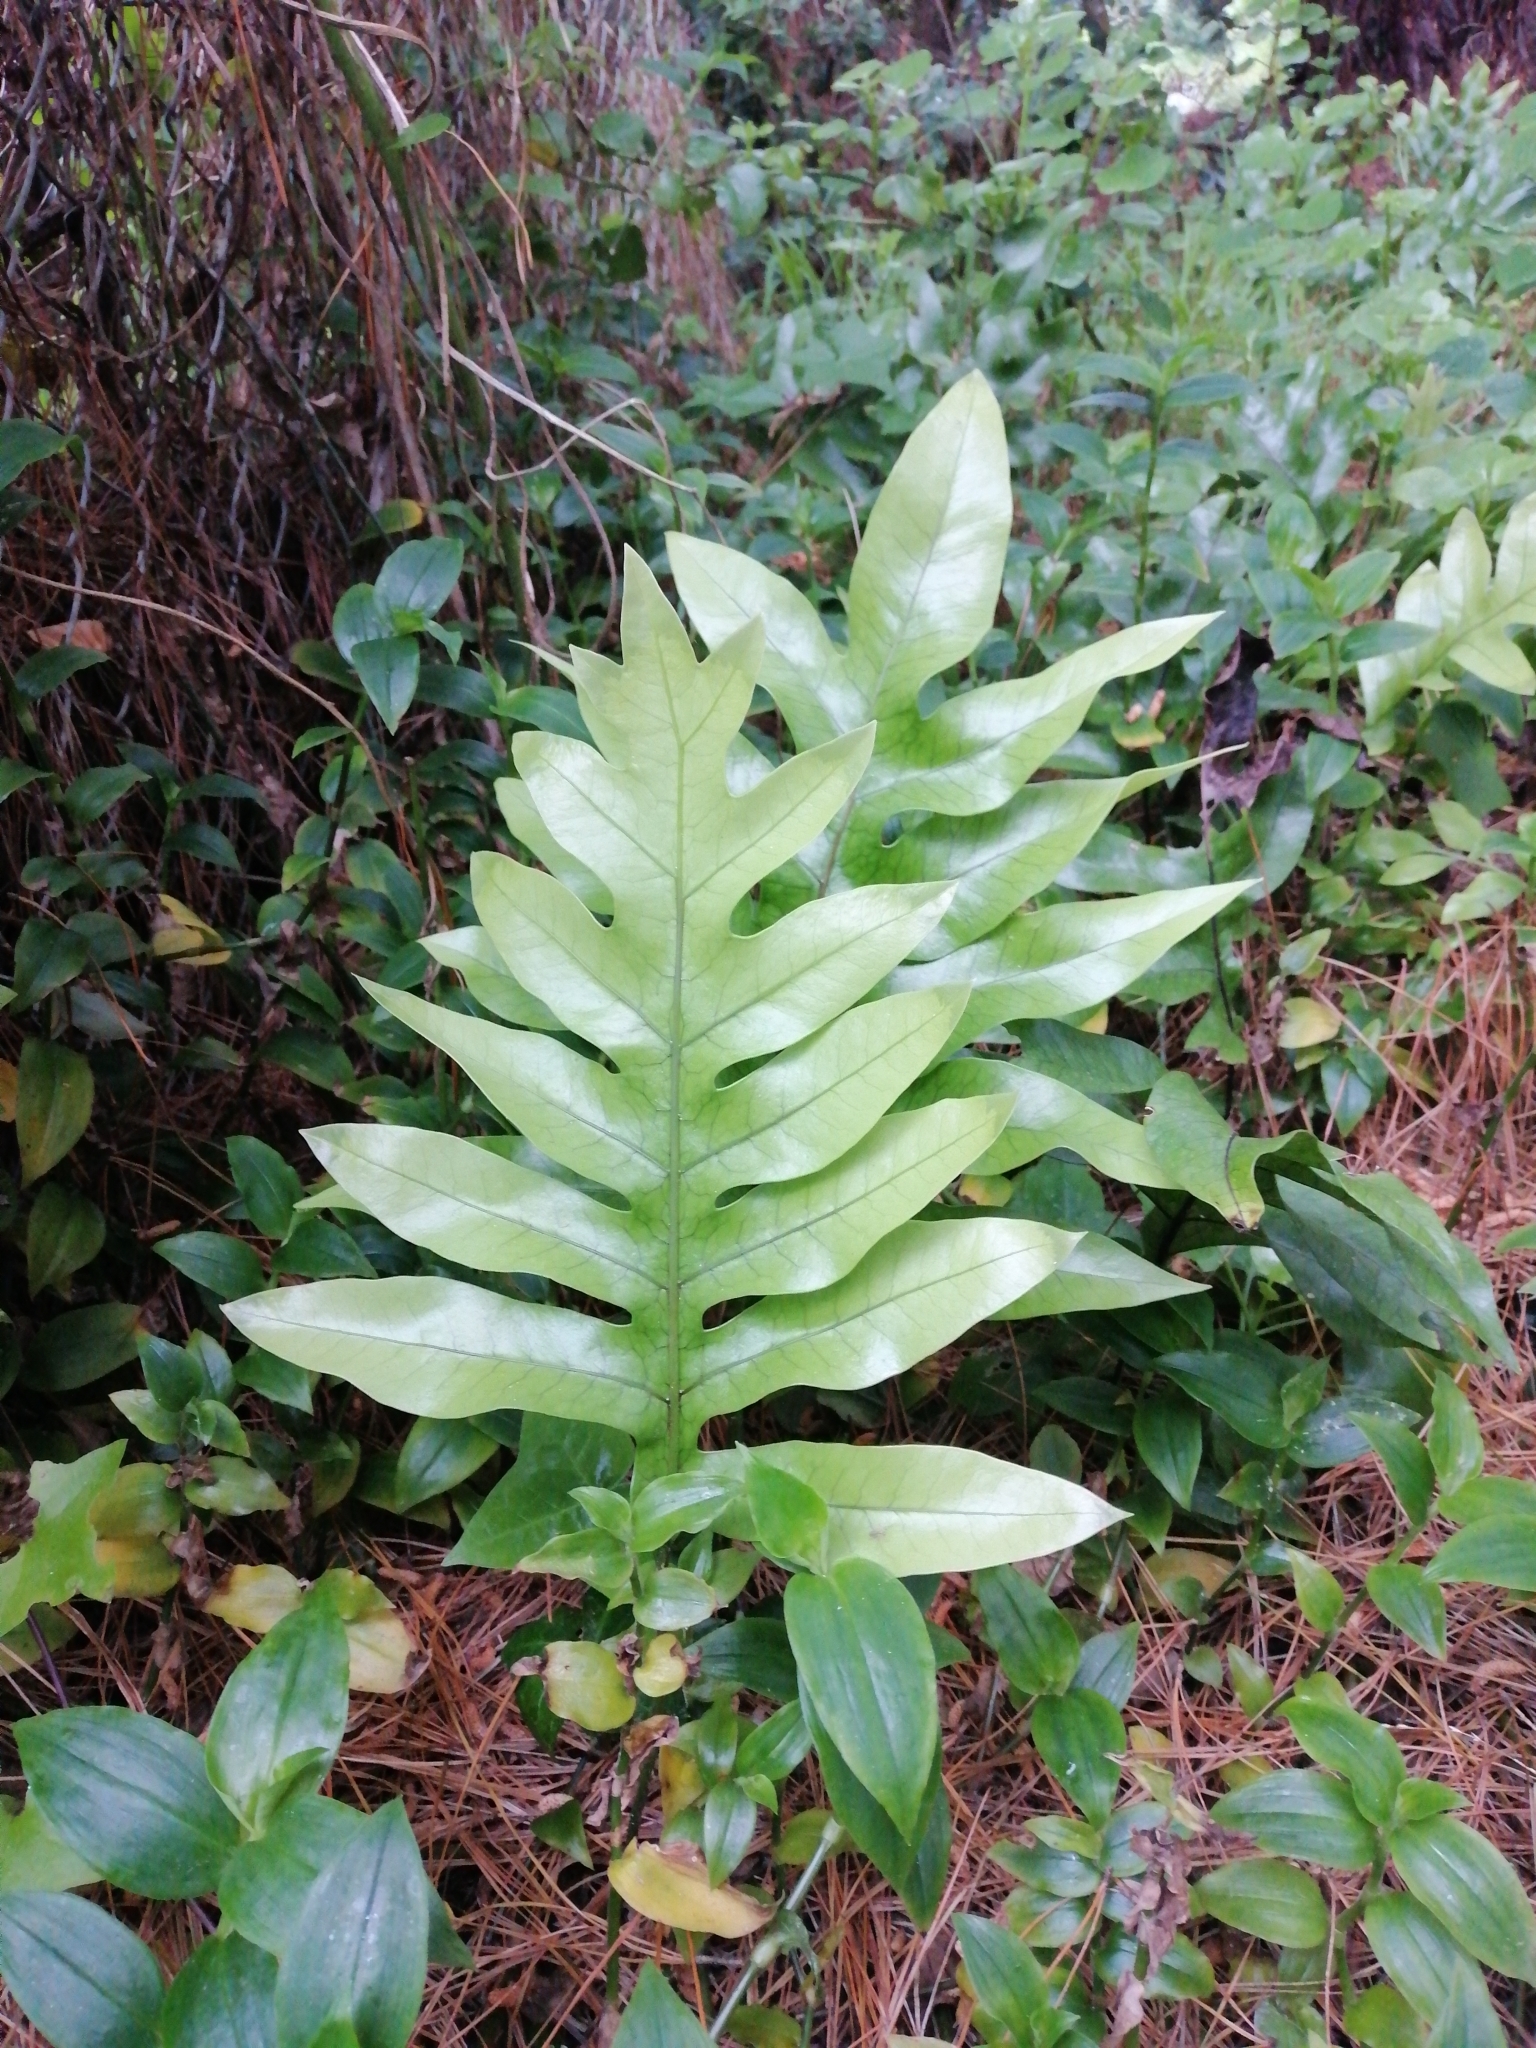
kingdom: Plantae
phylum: Tracheophyta
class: Polypodiopsida
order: Polypodiales
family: Polypodiaceae
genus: Lecanopteris
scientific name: Lecanopteris pustulata
